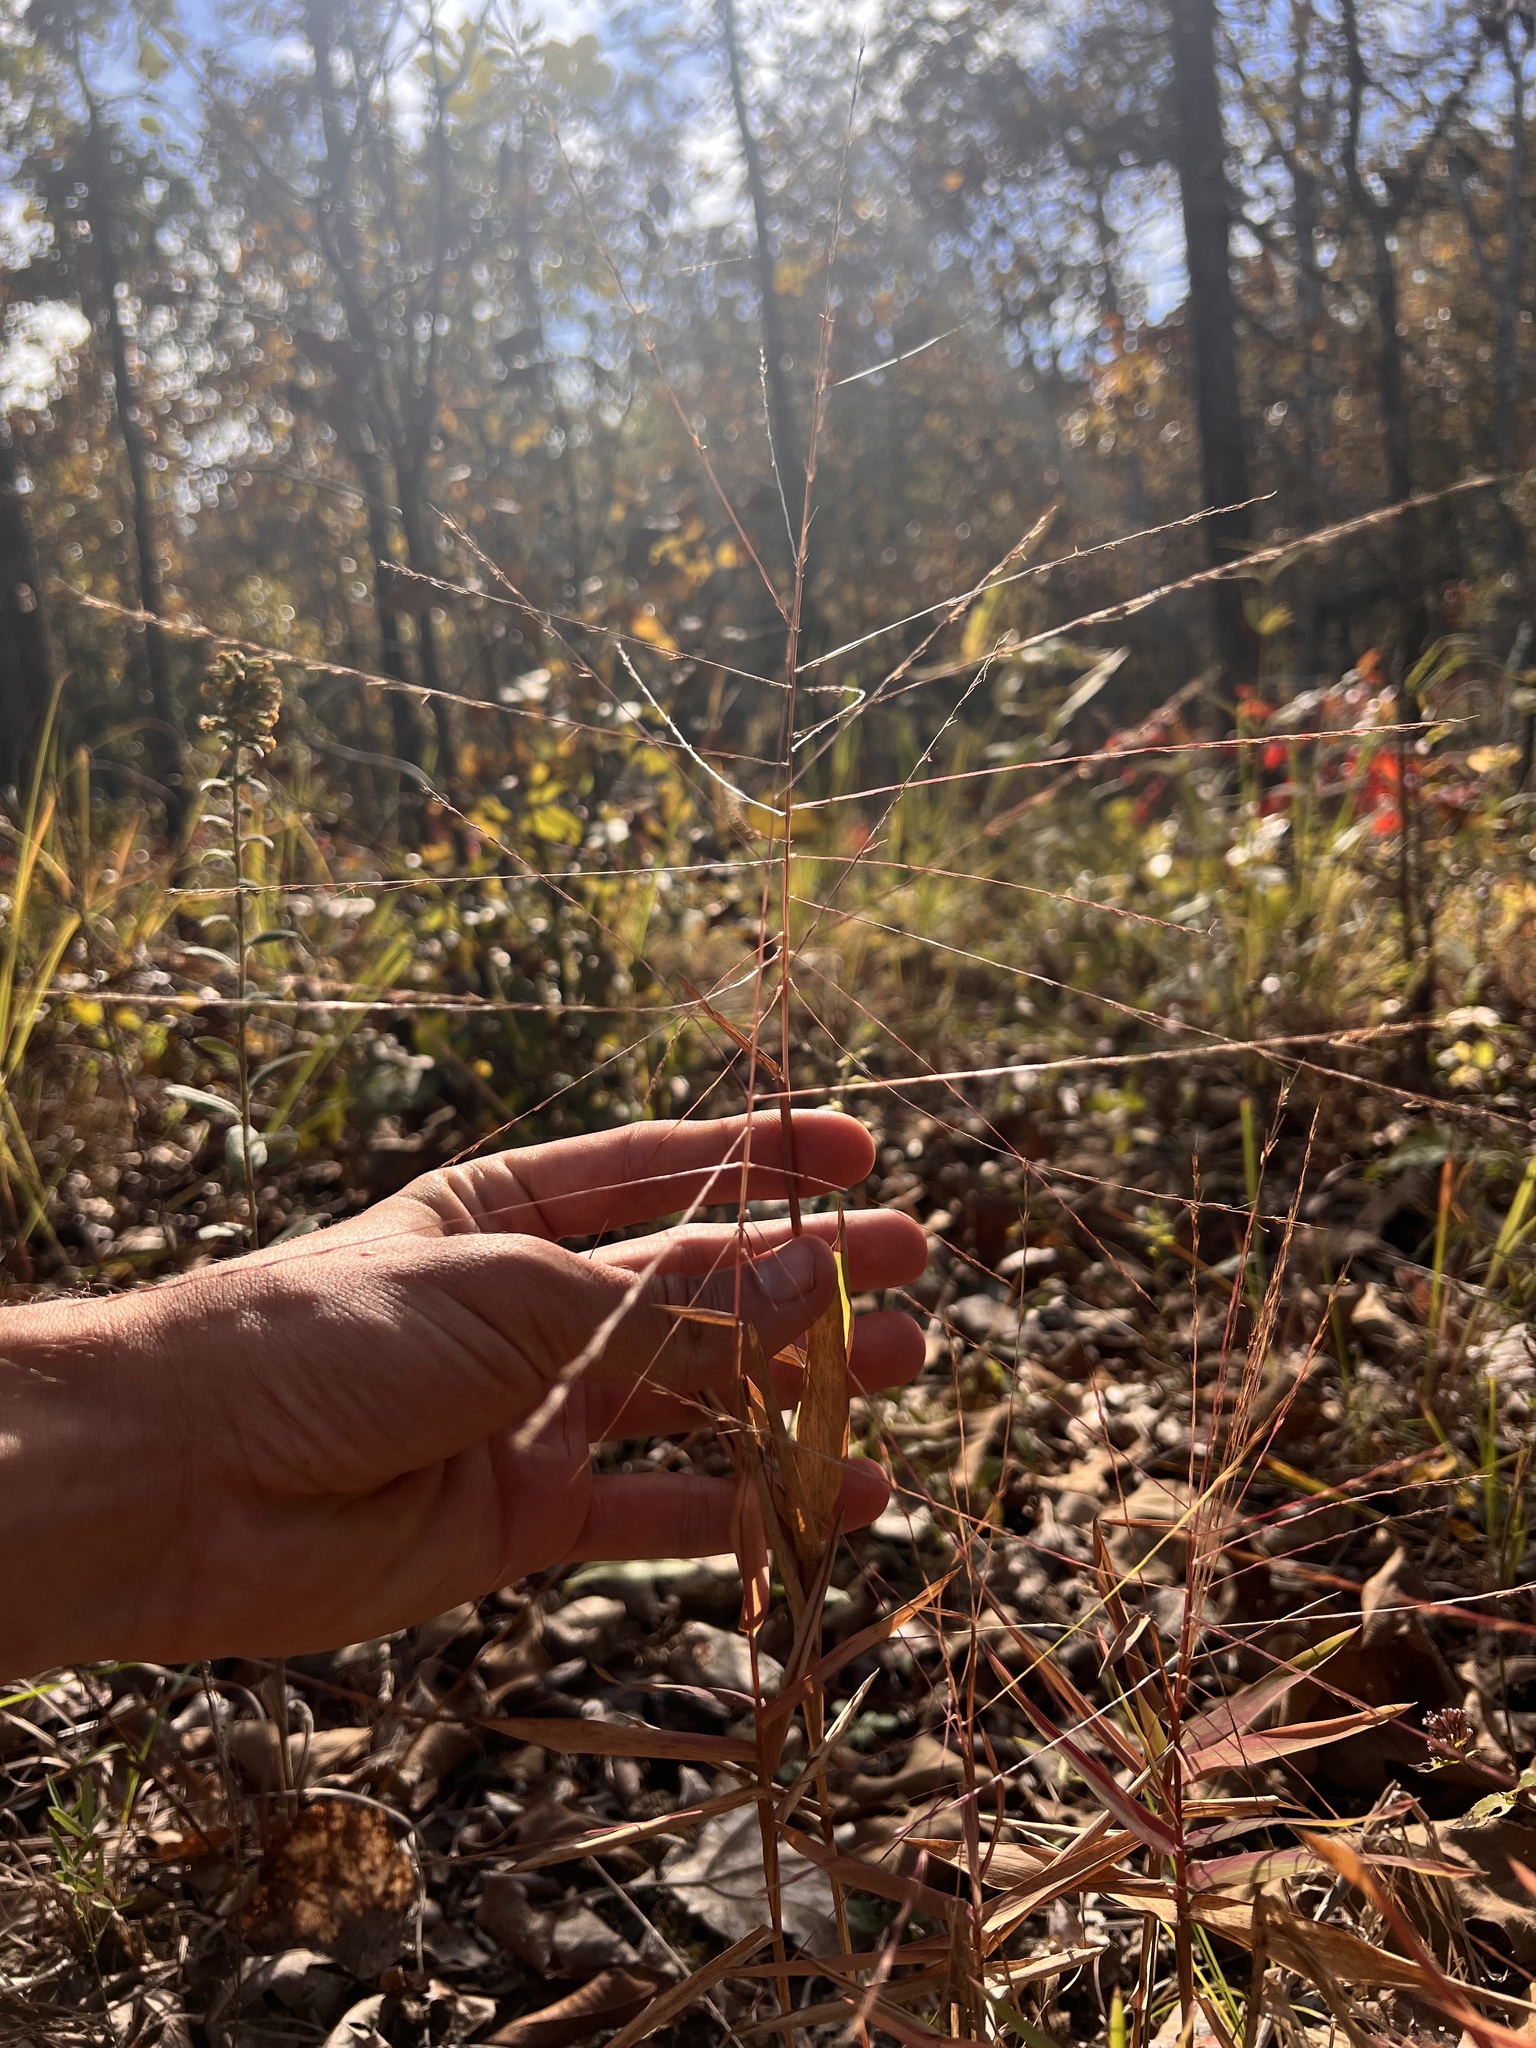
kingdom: Plantae
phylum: Tracheophyta
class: Liliopsida
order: Poales
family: Poaceae
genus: Gymnopogon
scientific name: Gymnopogon ambiguus
